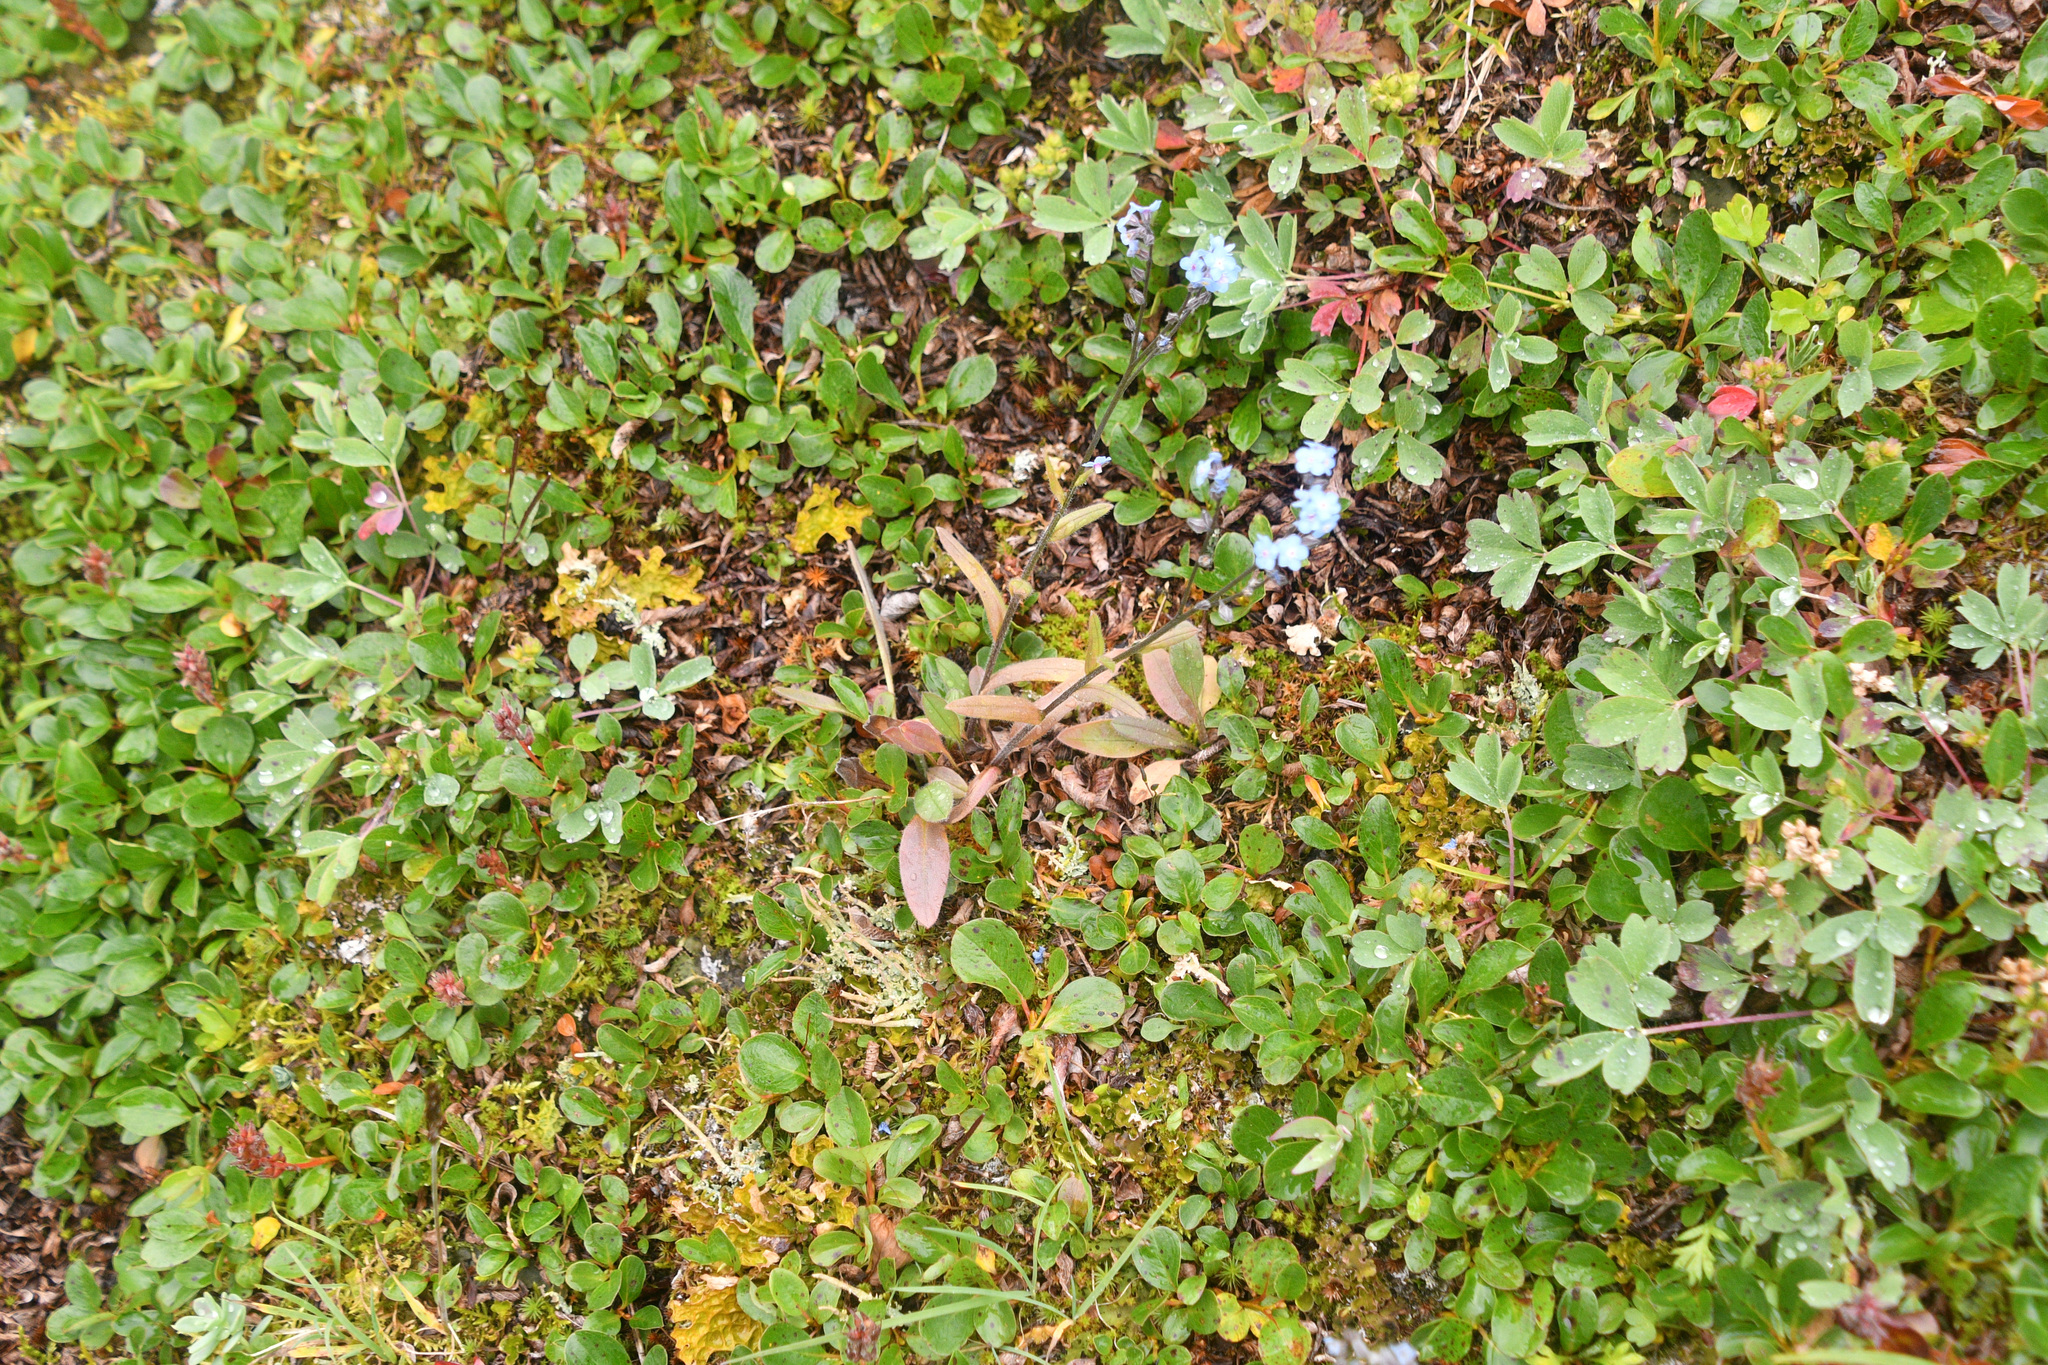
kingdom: Plantae
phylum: Tracheophyta
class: Magnoliopsida
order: Boraginales
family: Boraginaceae
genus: Myosotis
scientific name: Myosotis asiatica
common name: Asian forget-me-not
